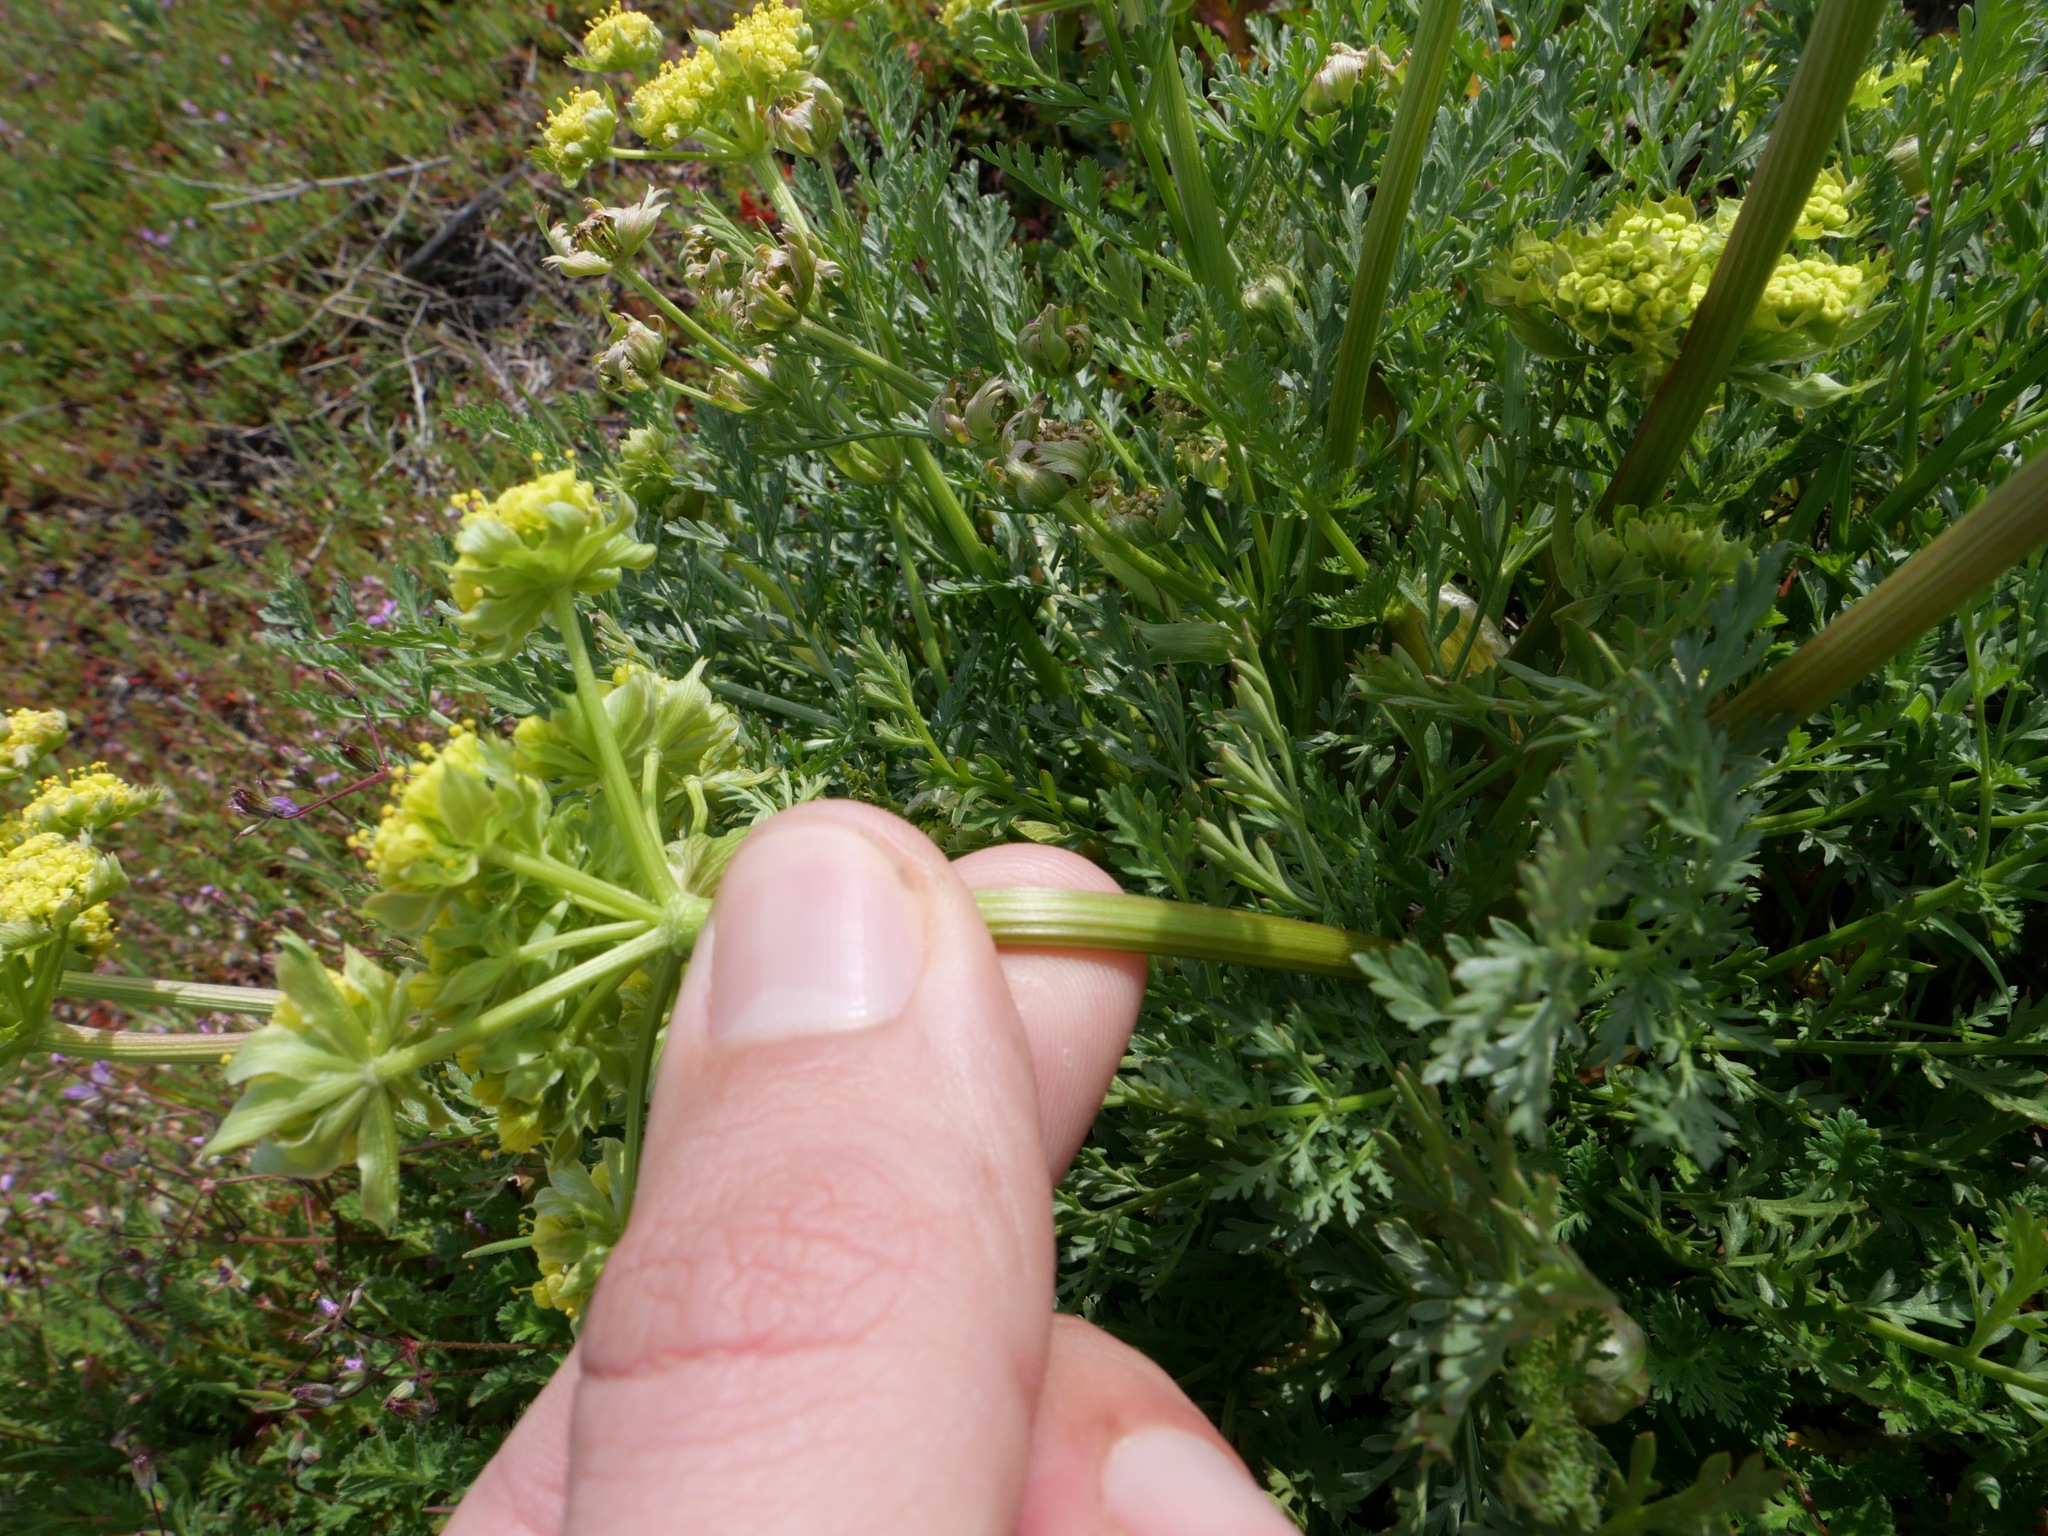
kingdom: Plantae
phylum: Tracheophyta
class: Magnoliopsida
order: Apiales
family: Apiaceae
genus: Lomatium
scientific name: Lomatium caruifolium
